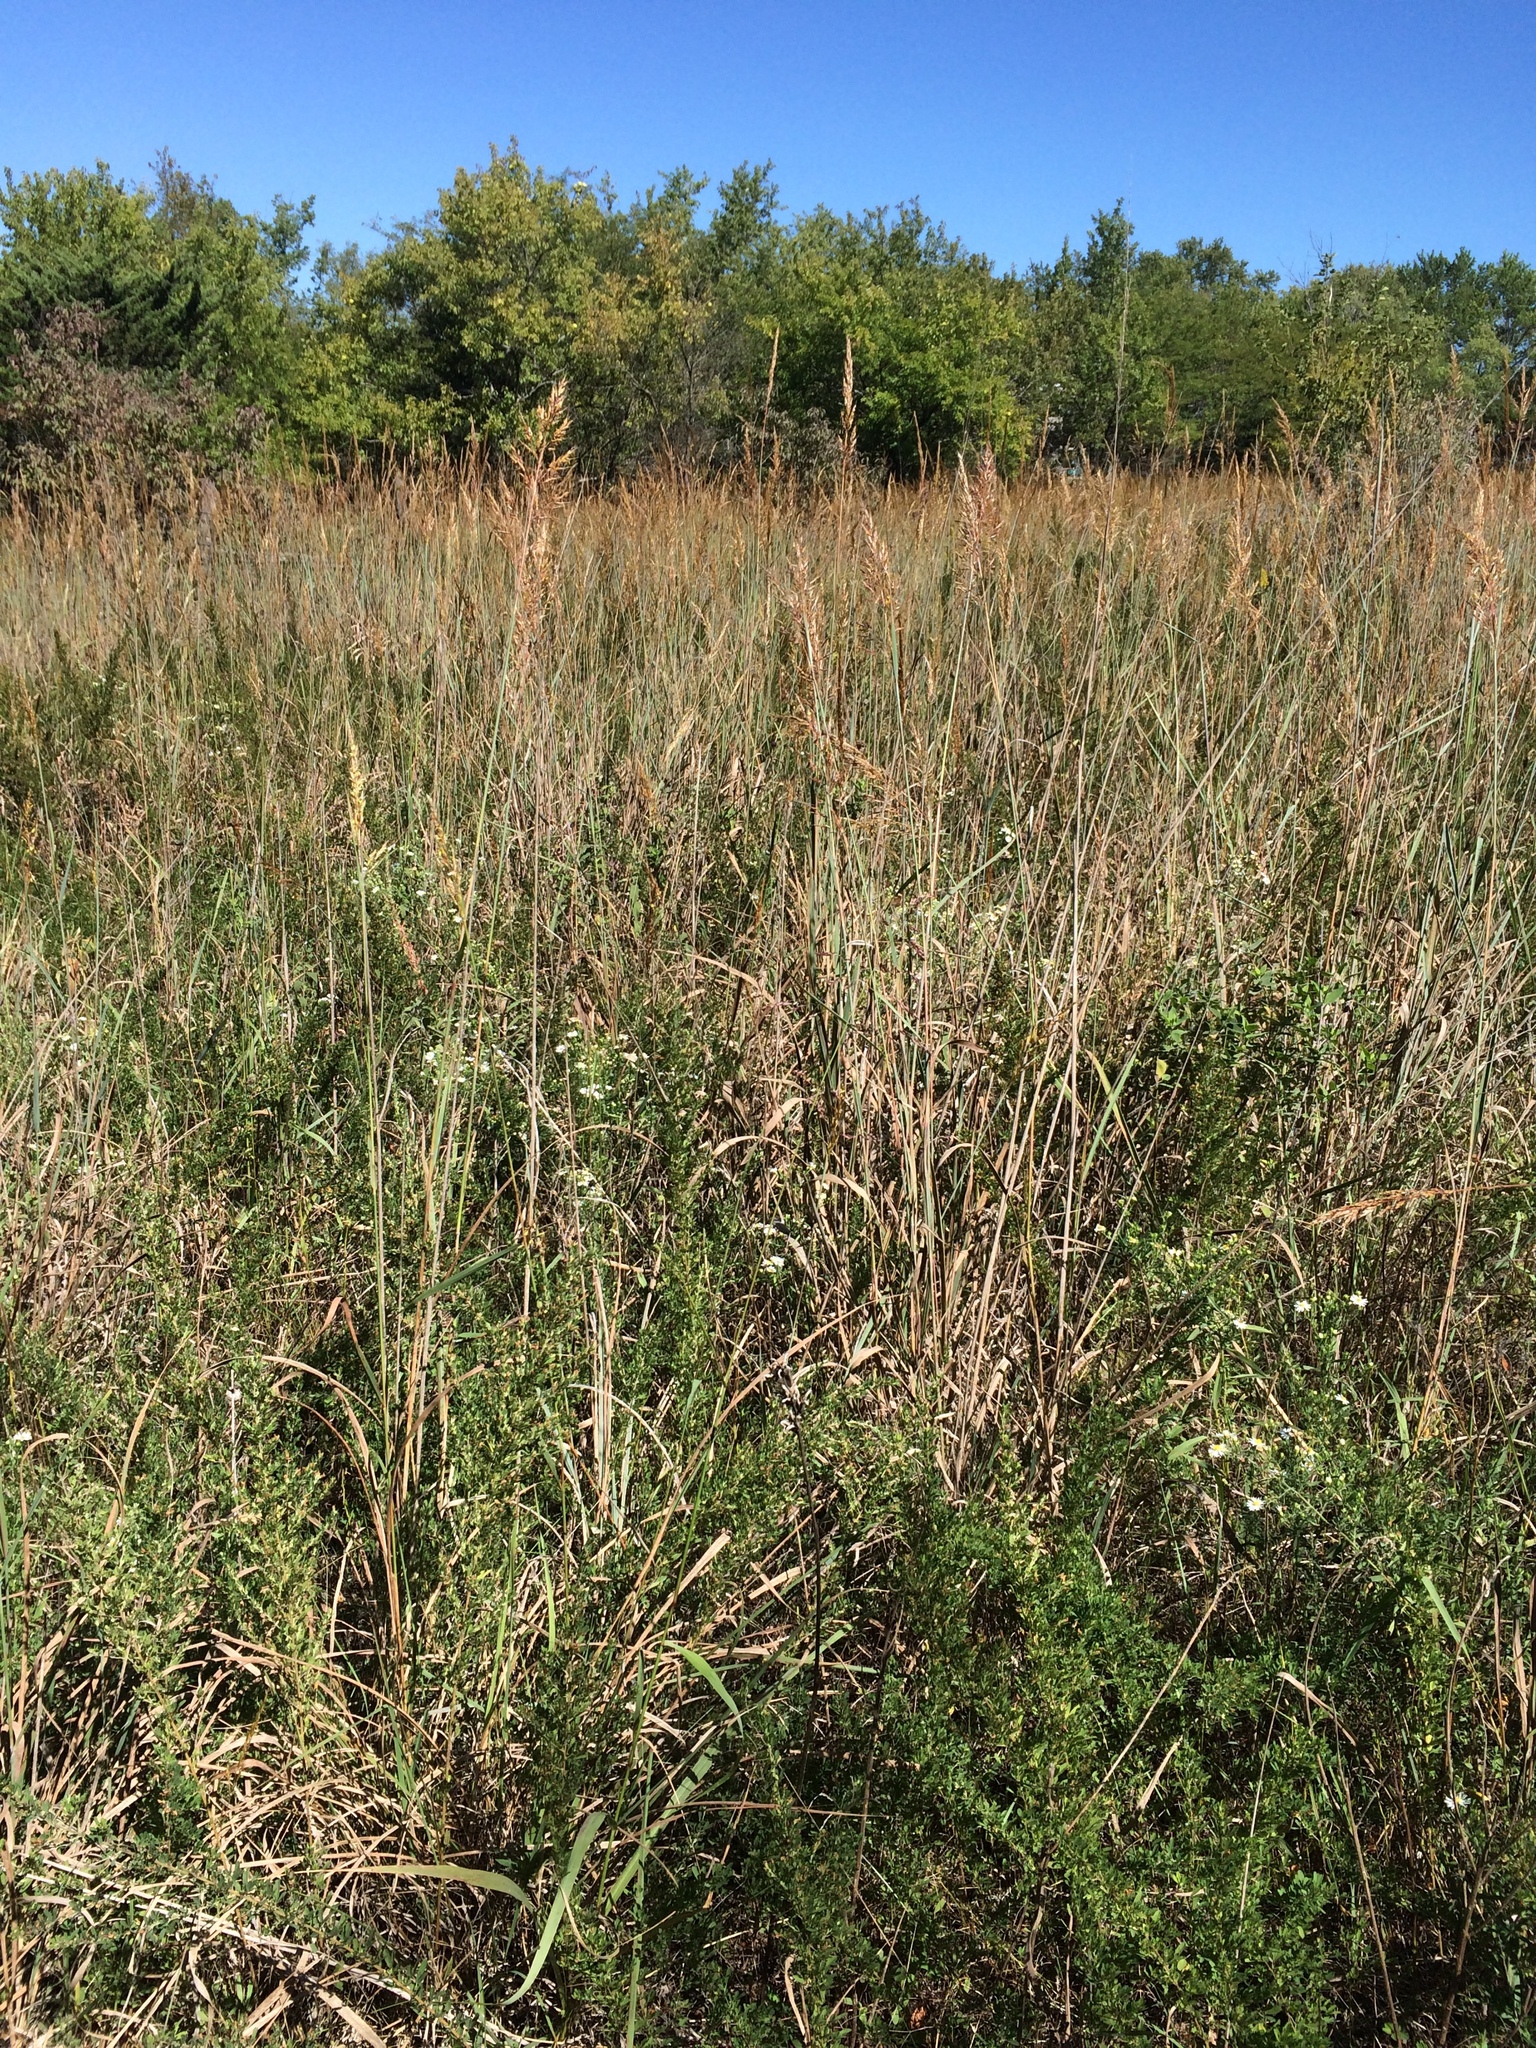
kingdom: Plantae
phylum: Tracheophyta
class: Liliopsida
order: Poales
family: Poaceae
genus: Sorghastrum
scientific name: Sorghastrum nutans
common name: Indian grass
